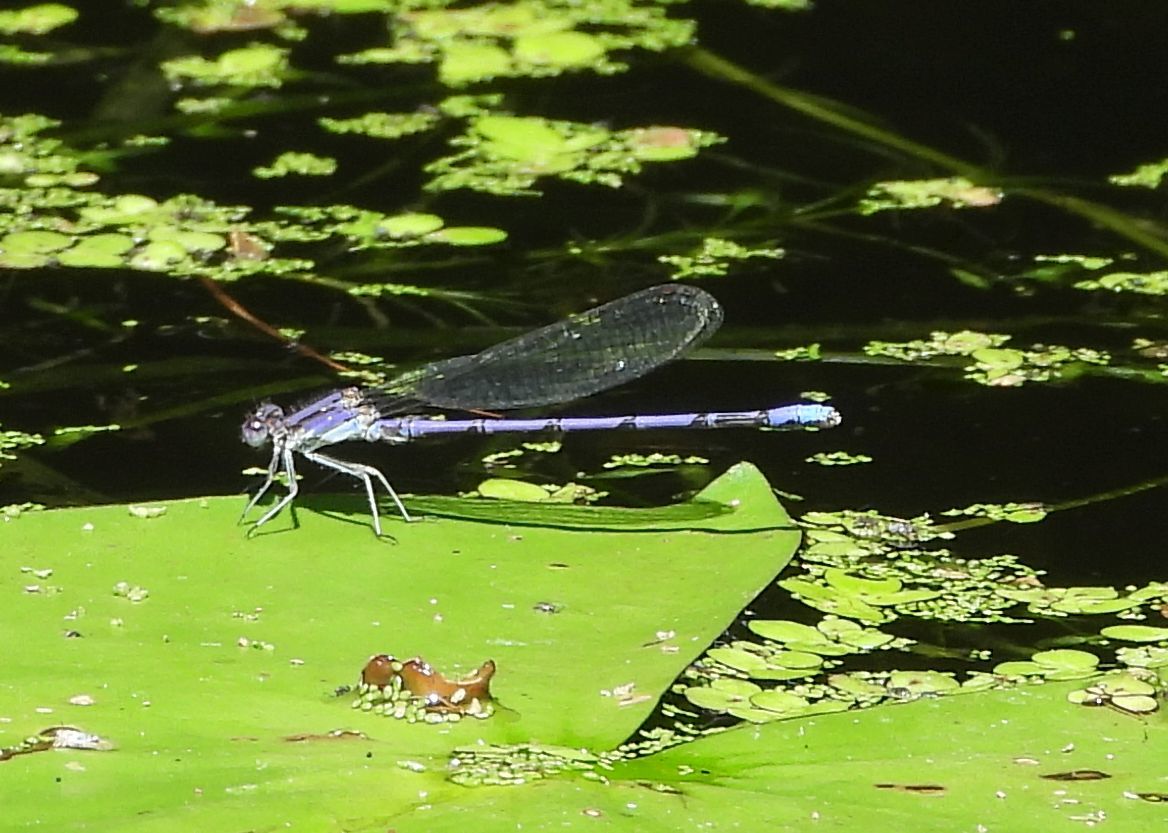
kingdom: Animalia
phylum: Arthropoda
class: Insecta
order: Odonata
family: Coenagrionidae
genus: Argia
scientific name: Argia fumipennis
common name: Variable dancer
